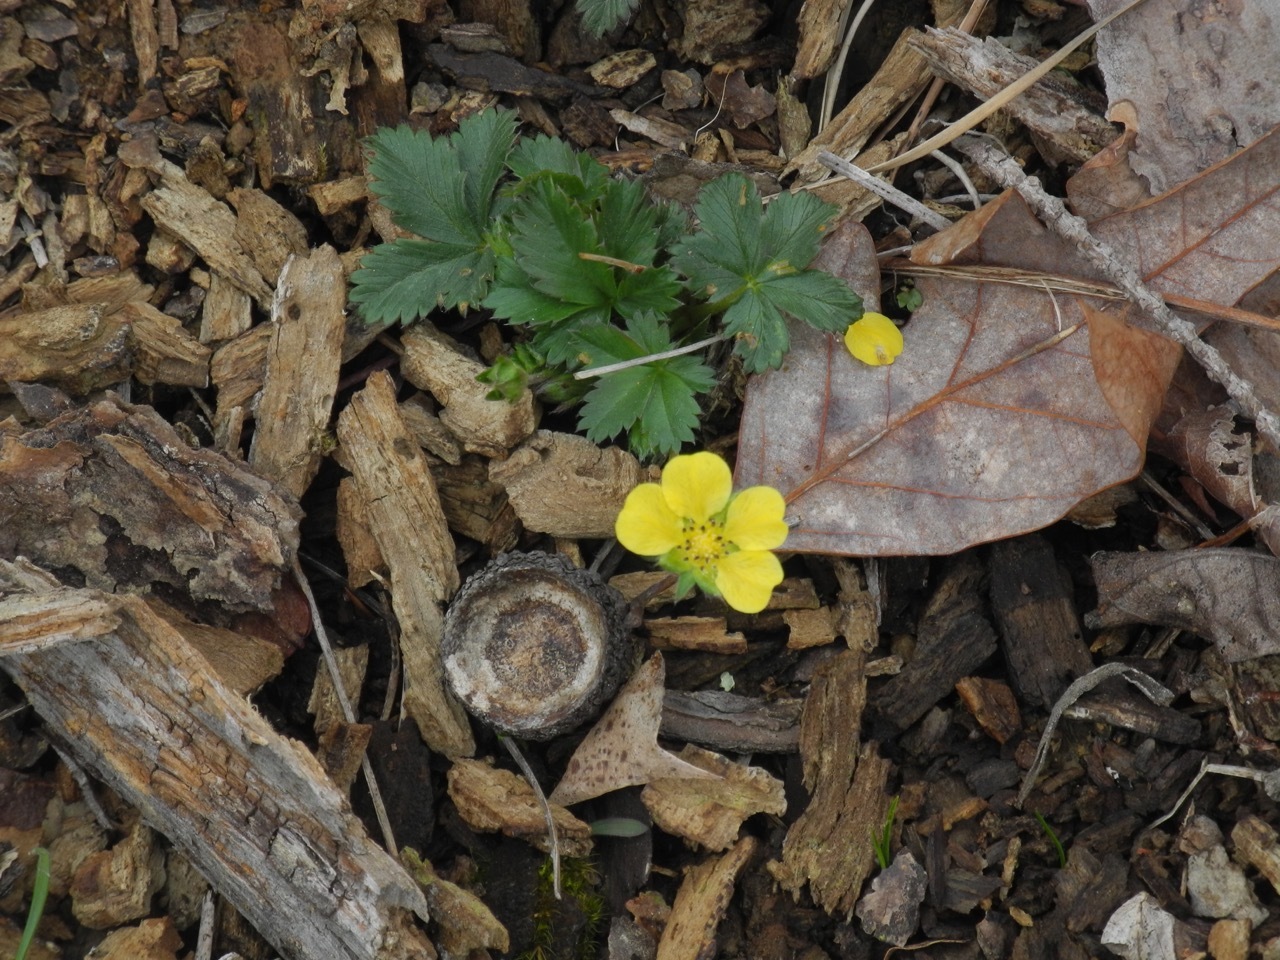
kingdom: Plantae
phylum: Tracheophyta
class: Magnoliopsida
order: Rosales
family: Rosaceae
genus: Potentilla
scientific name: Potentilla simplex
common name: Old field cinquefoil
